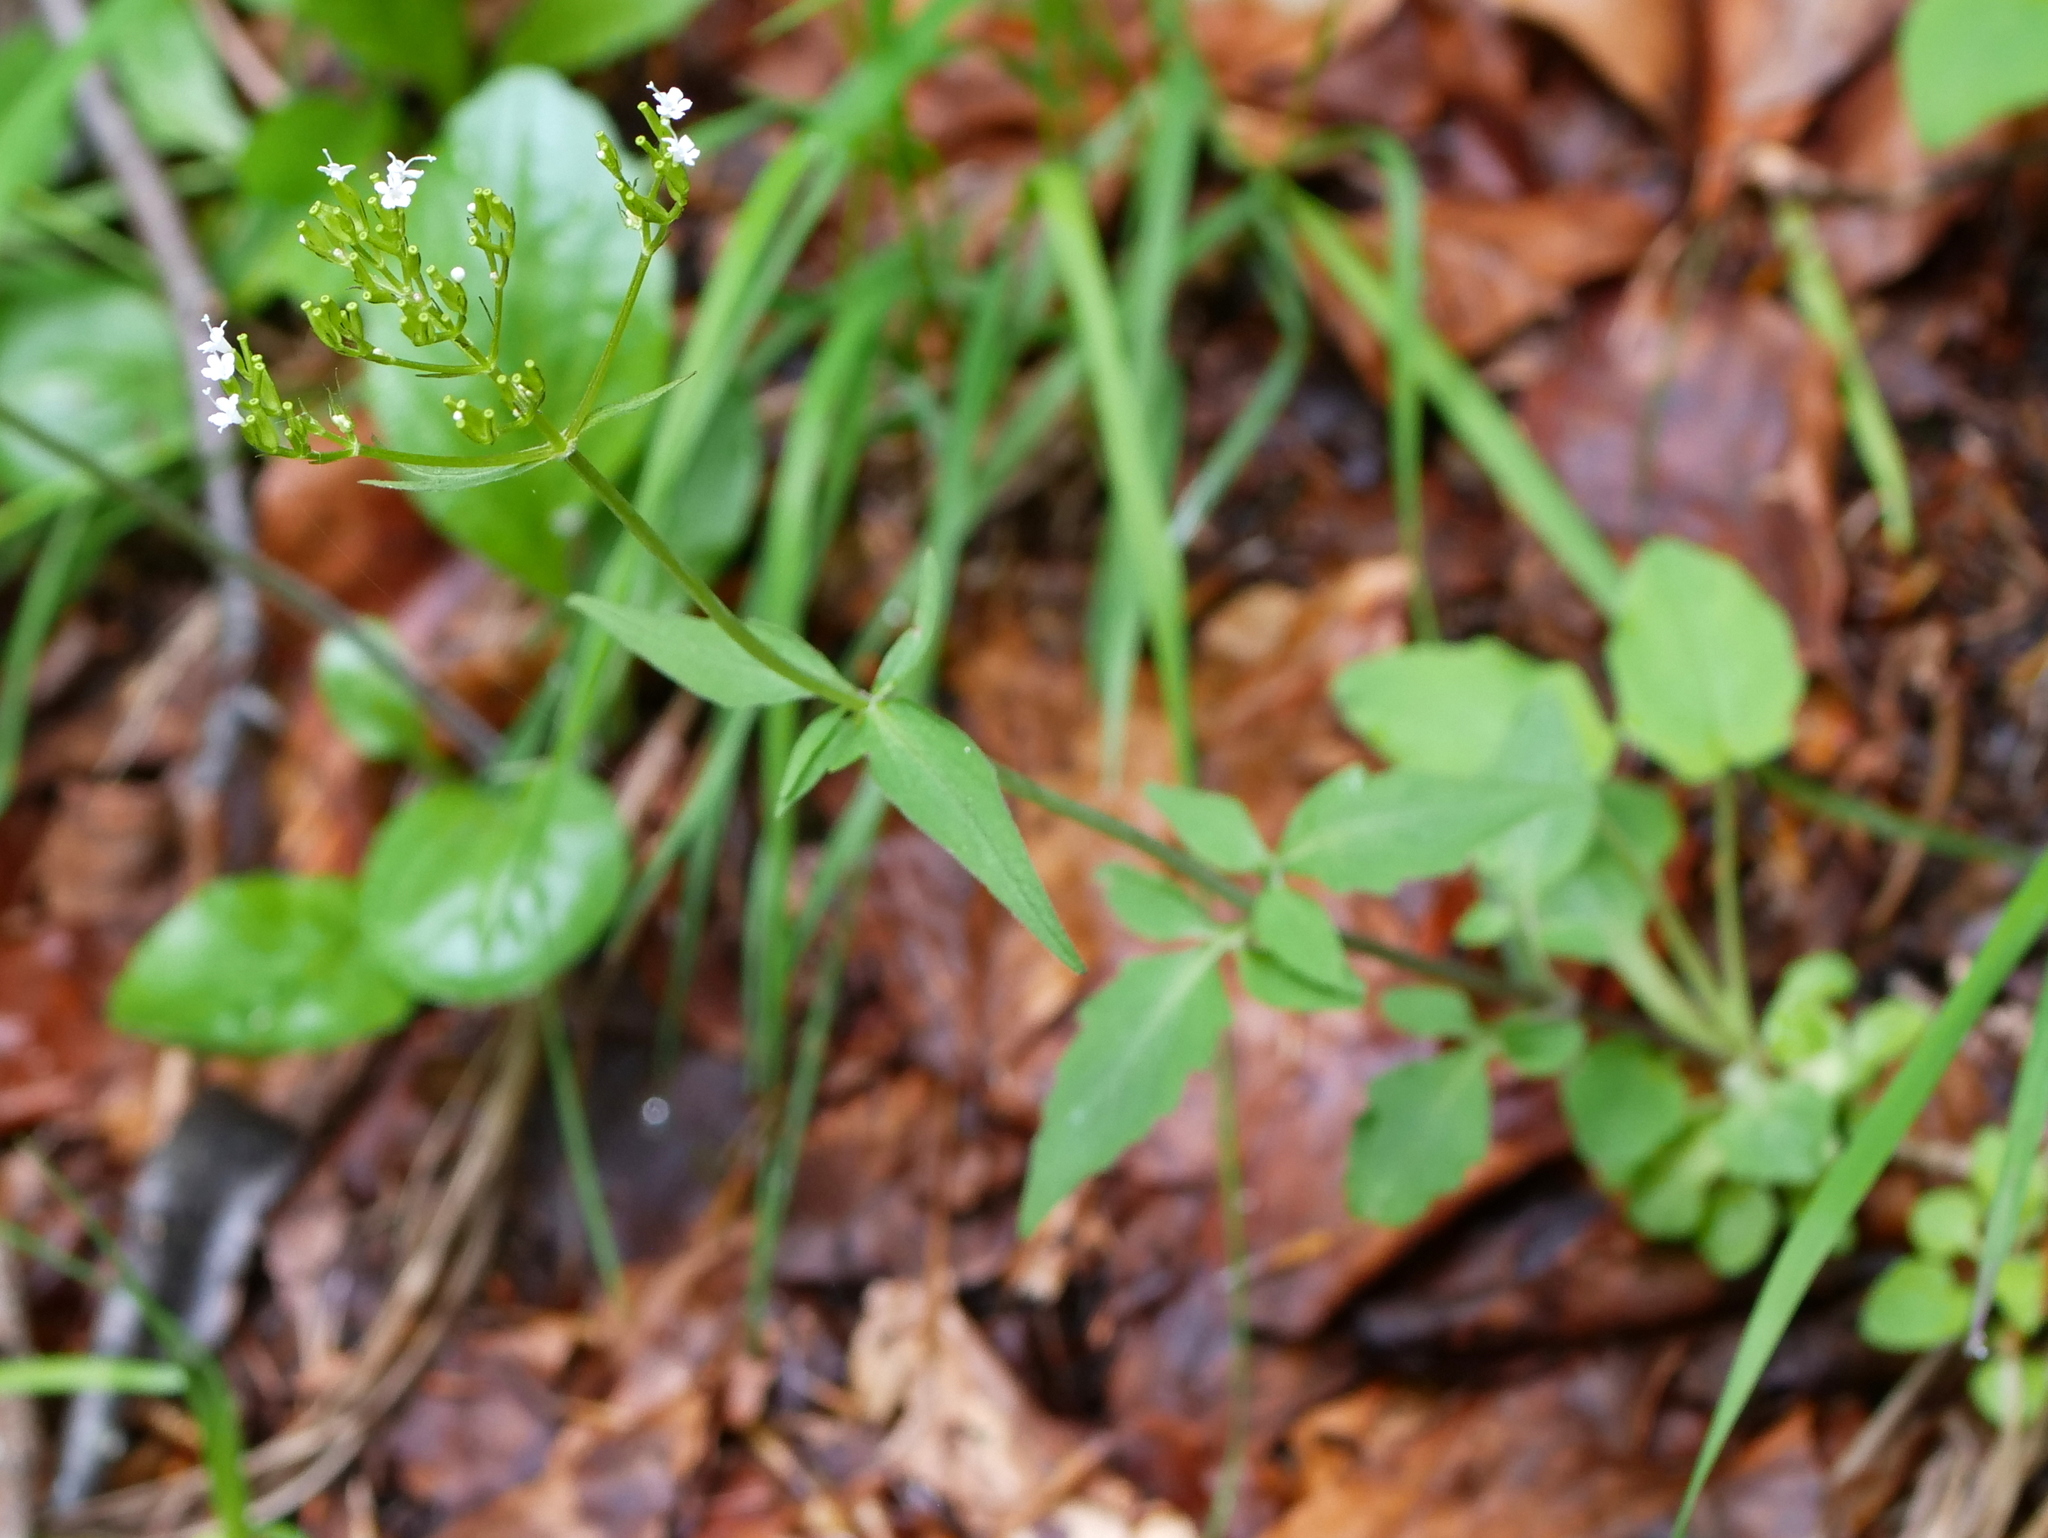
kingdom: Plantae
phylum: Tracheophyta
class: Magnoliopsida
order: Dipsacales
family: Caprifoliaceae
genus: Valeriana
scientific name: Valeriana tripteris
